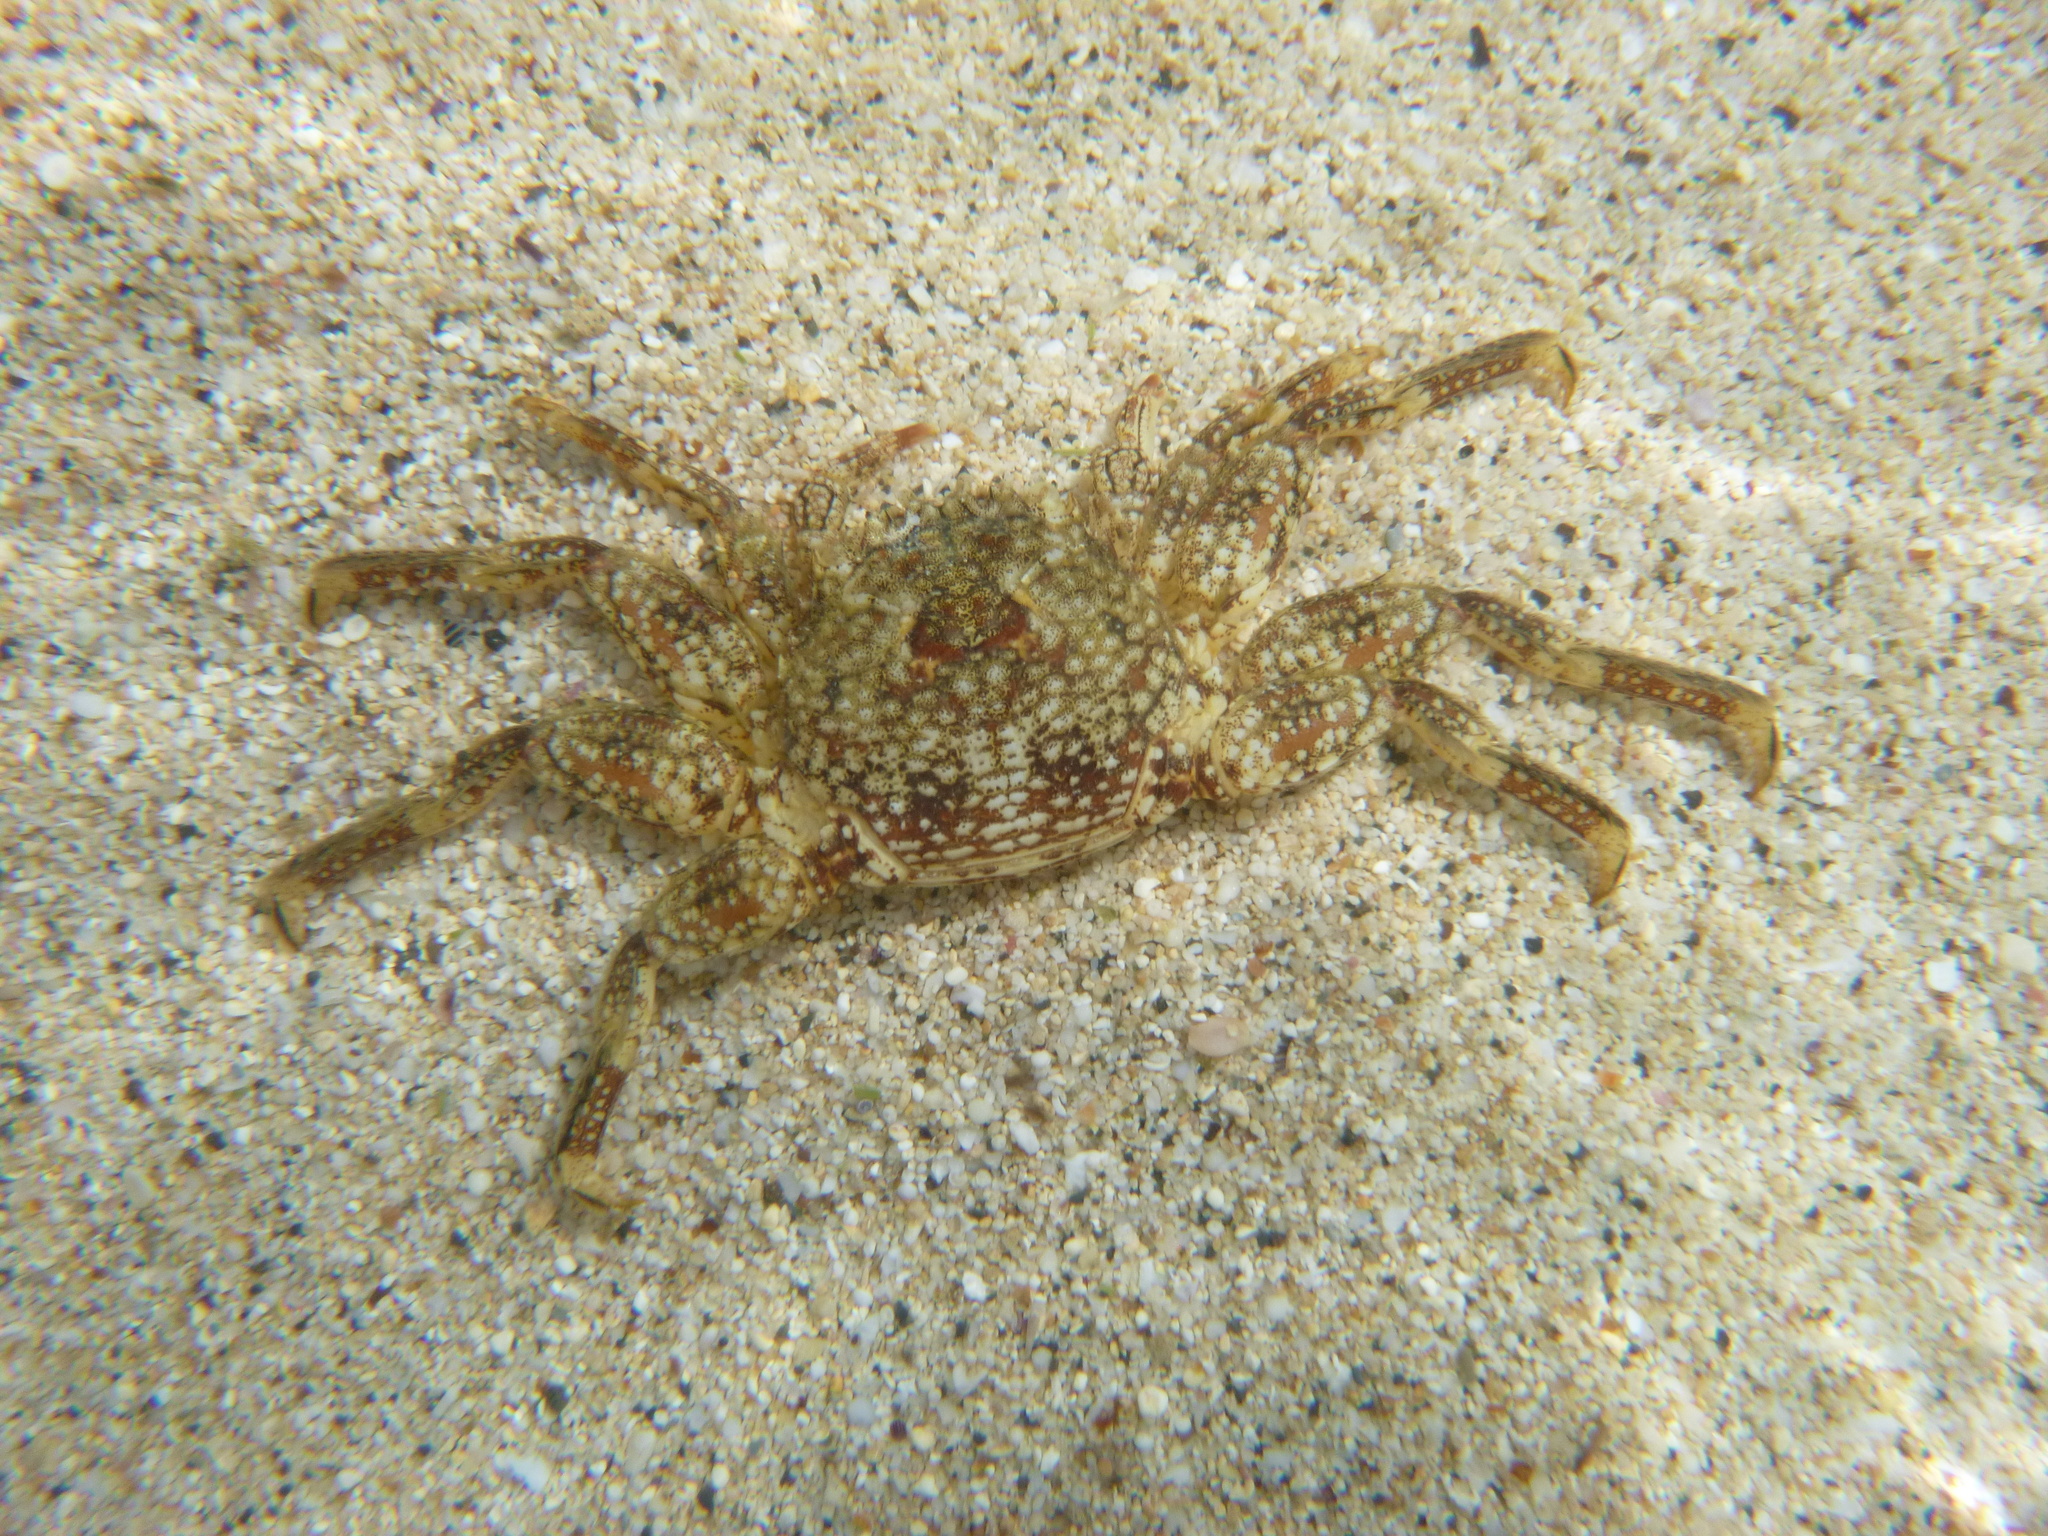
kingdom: Animalia
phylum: Arthropoda
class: Malacostraca
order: Decapoda
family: Plagusiidae
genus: Plagusia
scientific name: Plagusia squamosa
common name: Scaly rock crab
